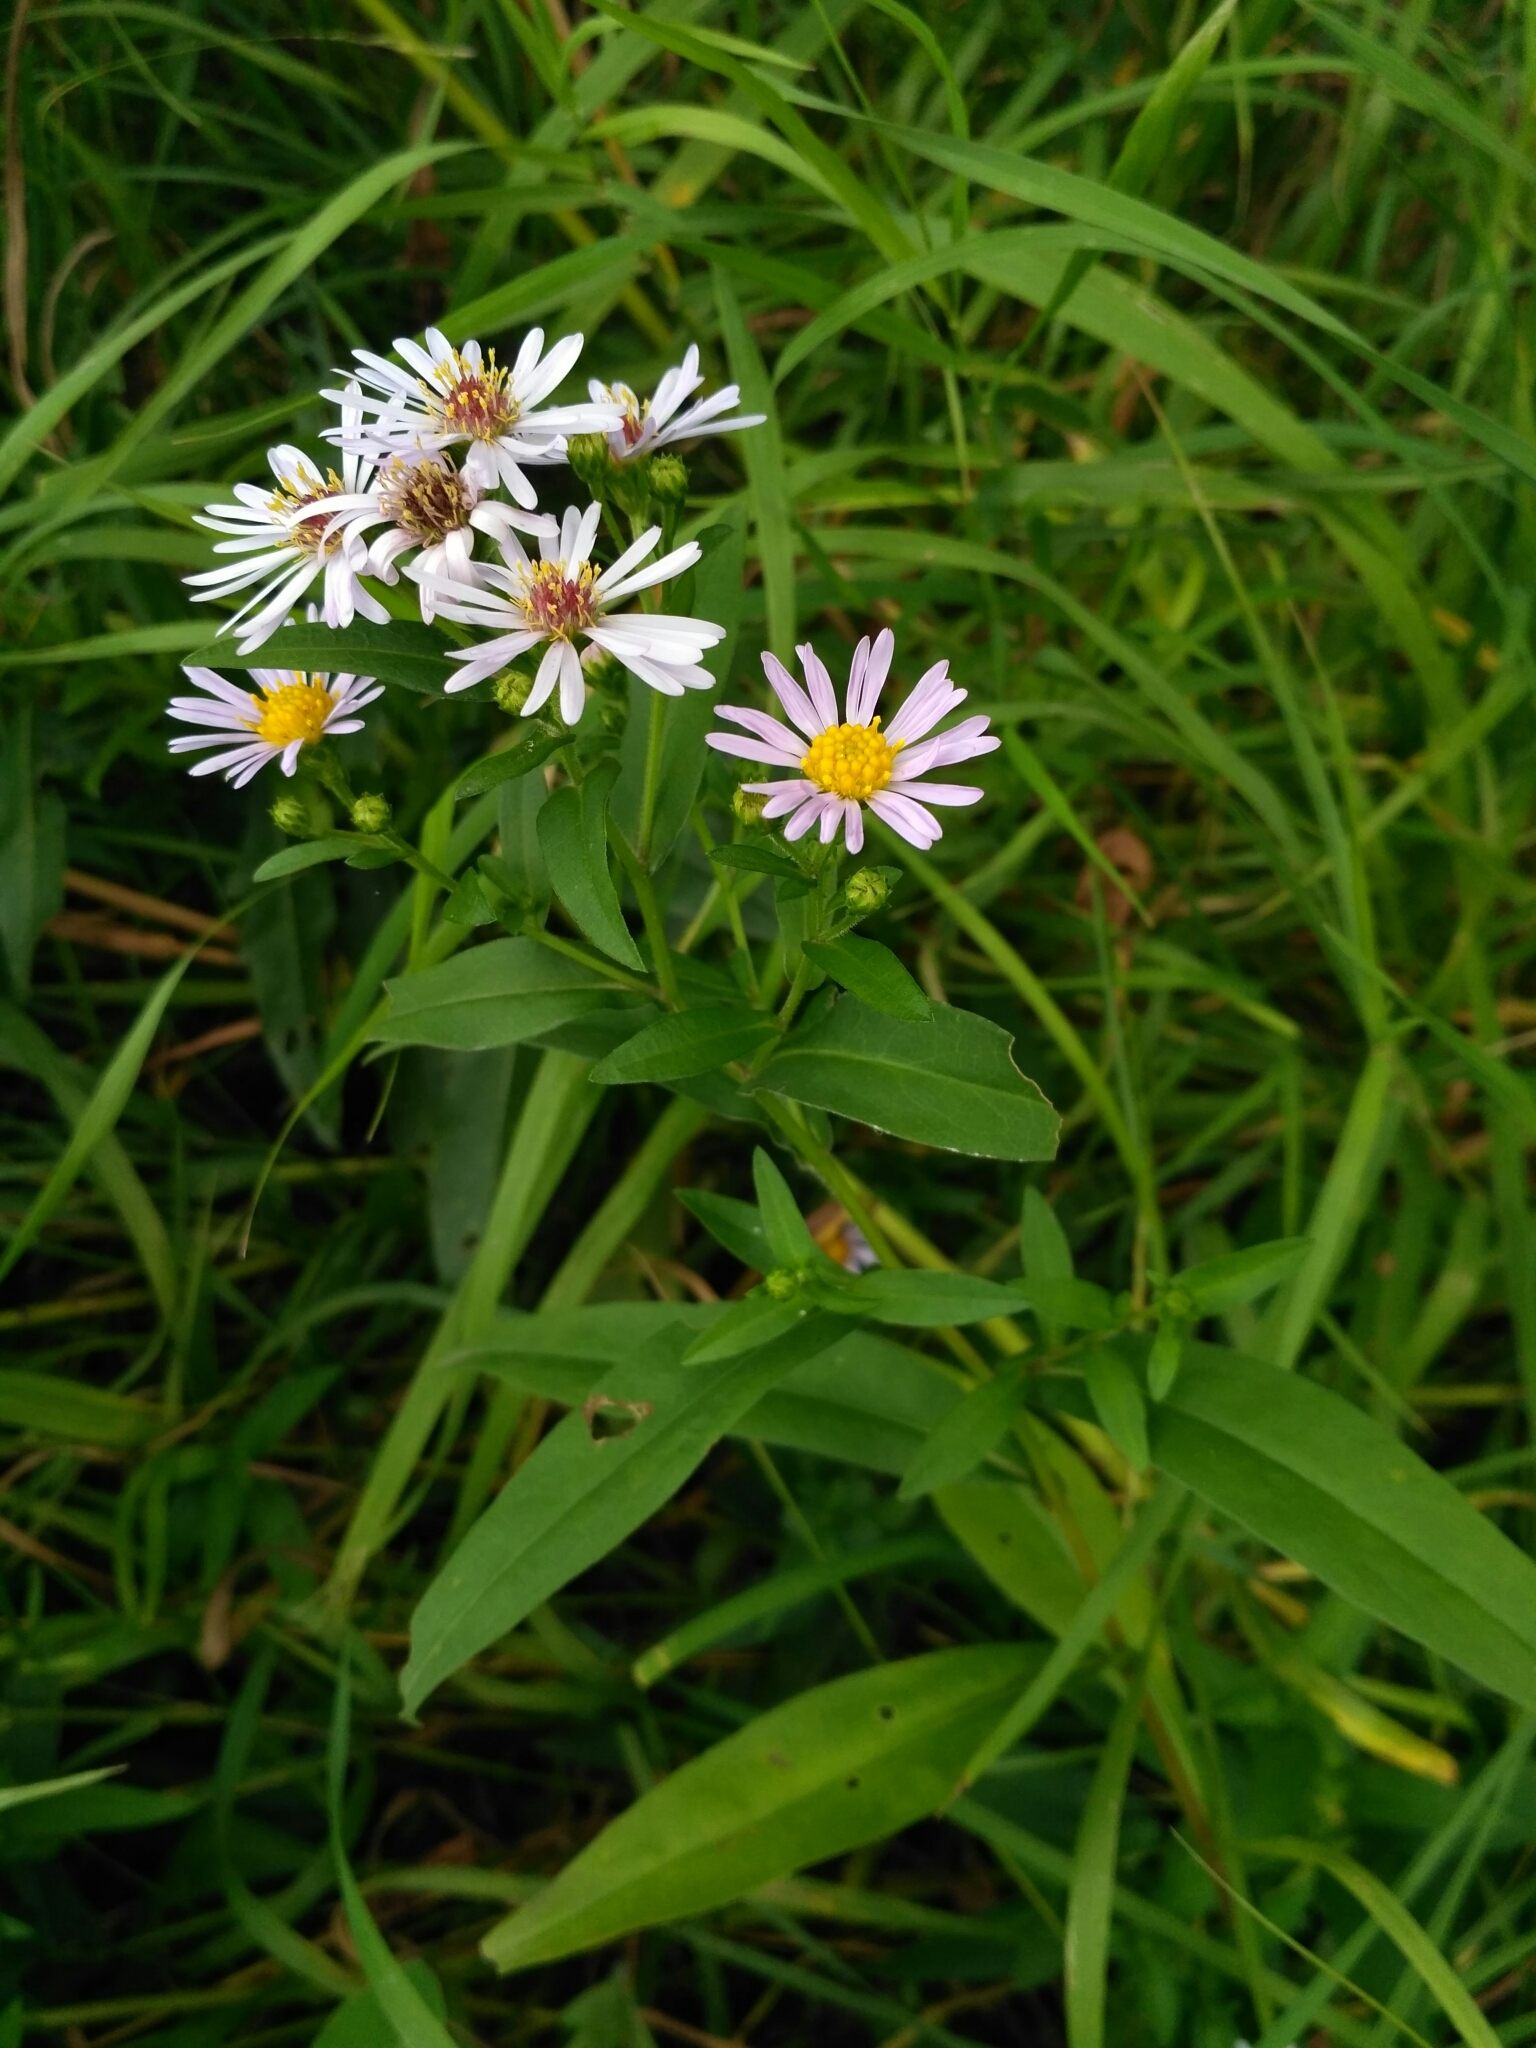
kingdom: Plantae
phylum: Tracheophyta
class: Magnoliopsida
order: Asterales
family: Asteraceae
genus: Symphyotrichum
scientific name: Symphyotrichum salignum
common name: Common michaelmas daisy
